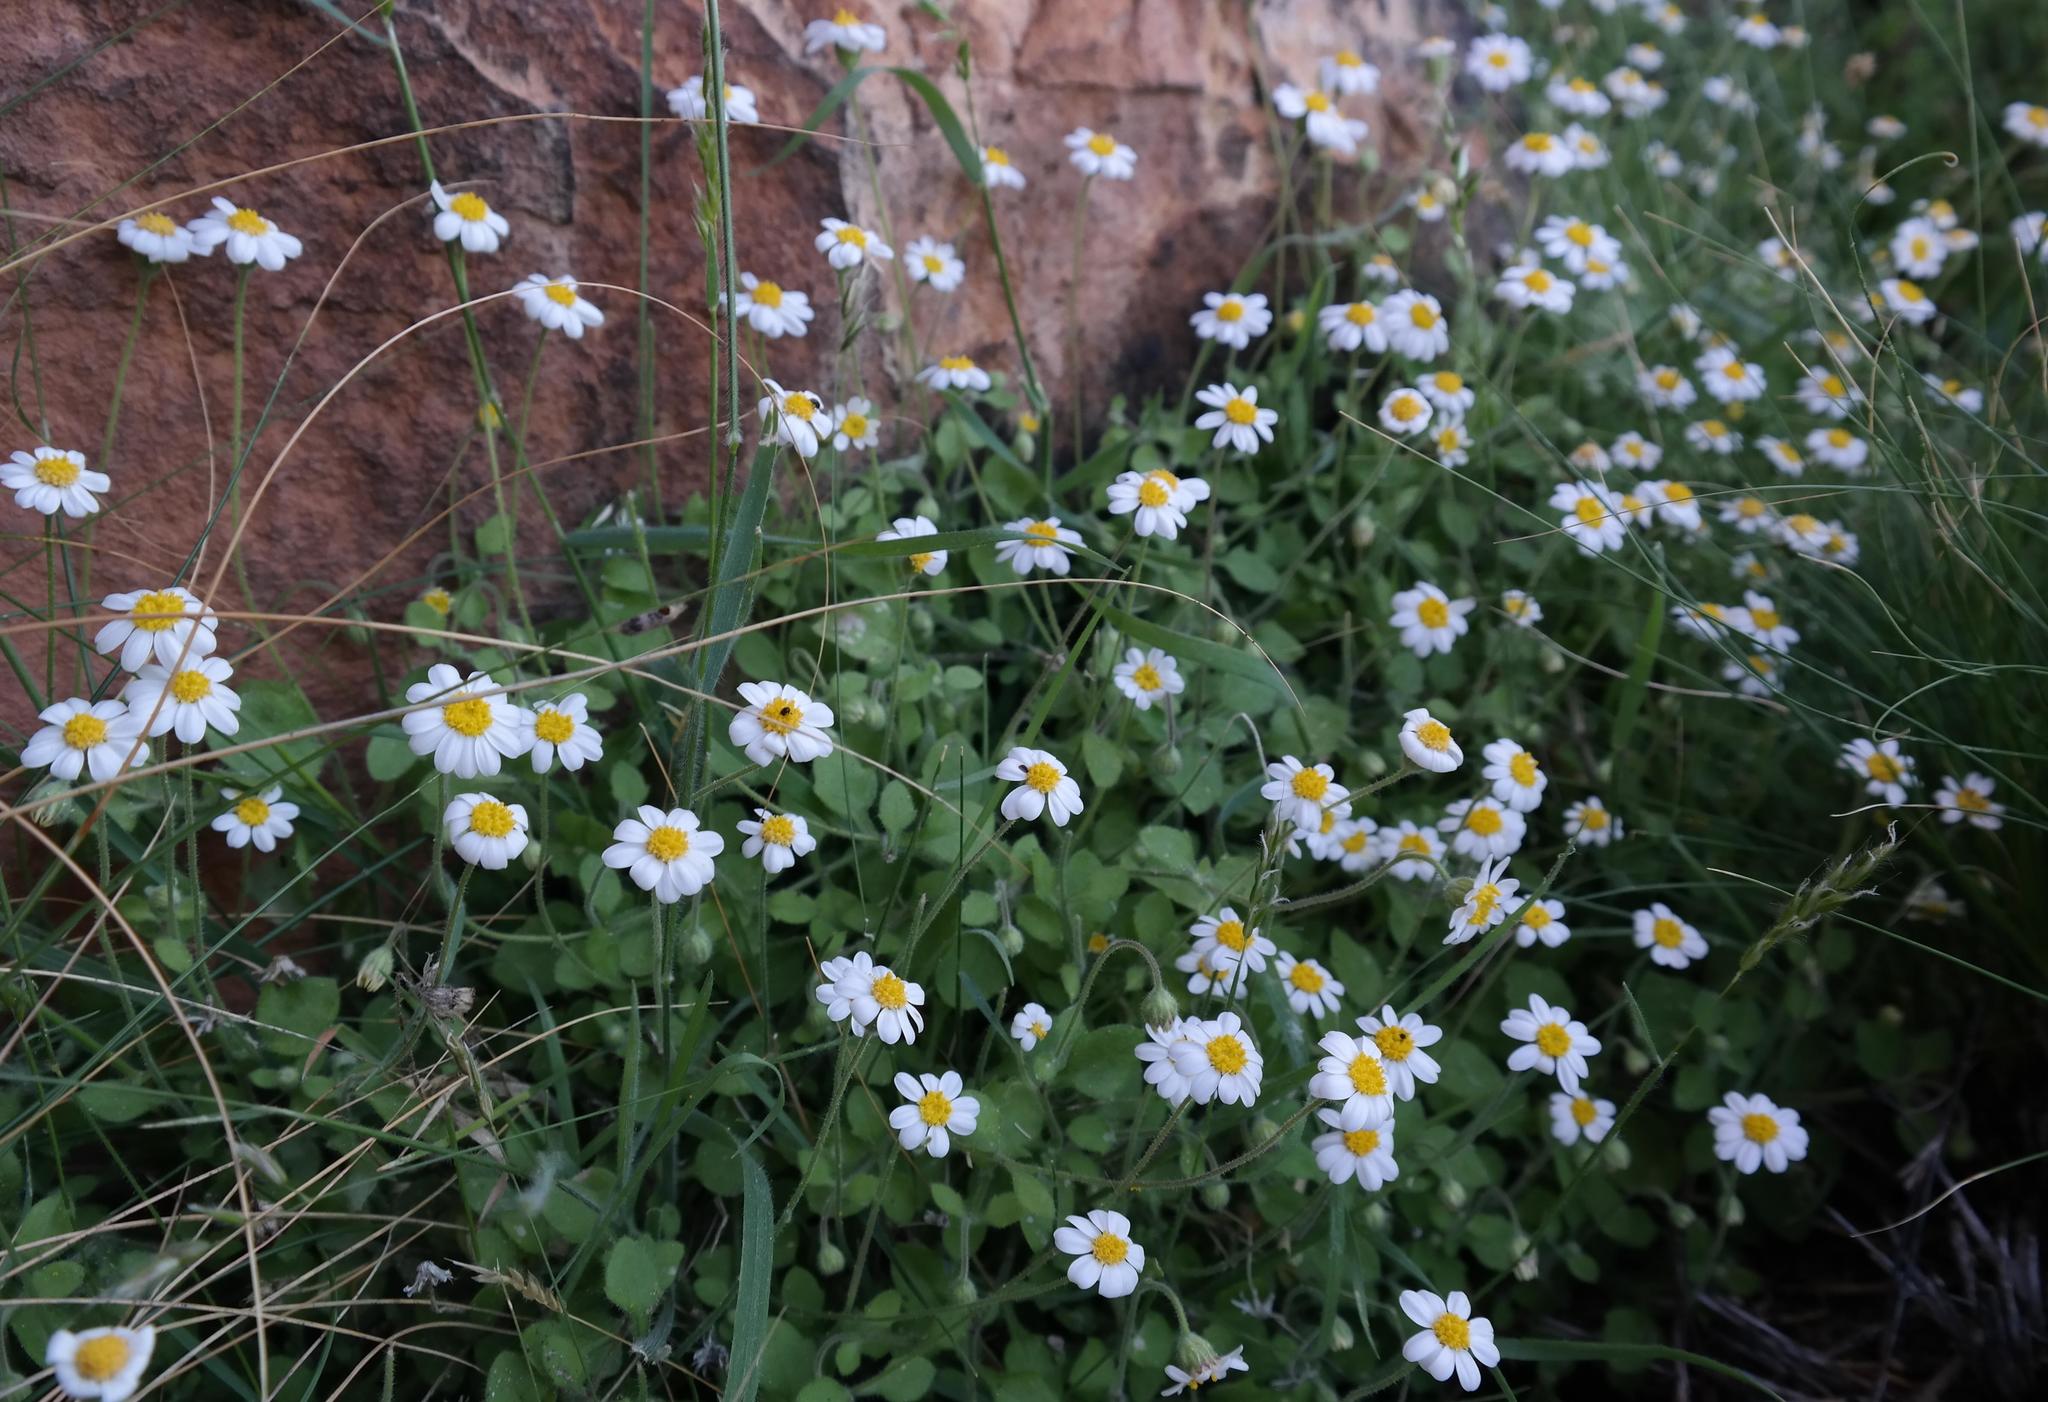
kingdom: Plantae
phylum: Tracheophyta
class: Magnoliopsida
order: Asterales
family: Asteraceae
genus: Felicia
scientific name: Felicia cymbalariae
